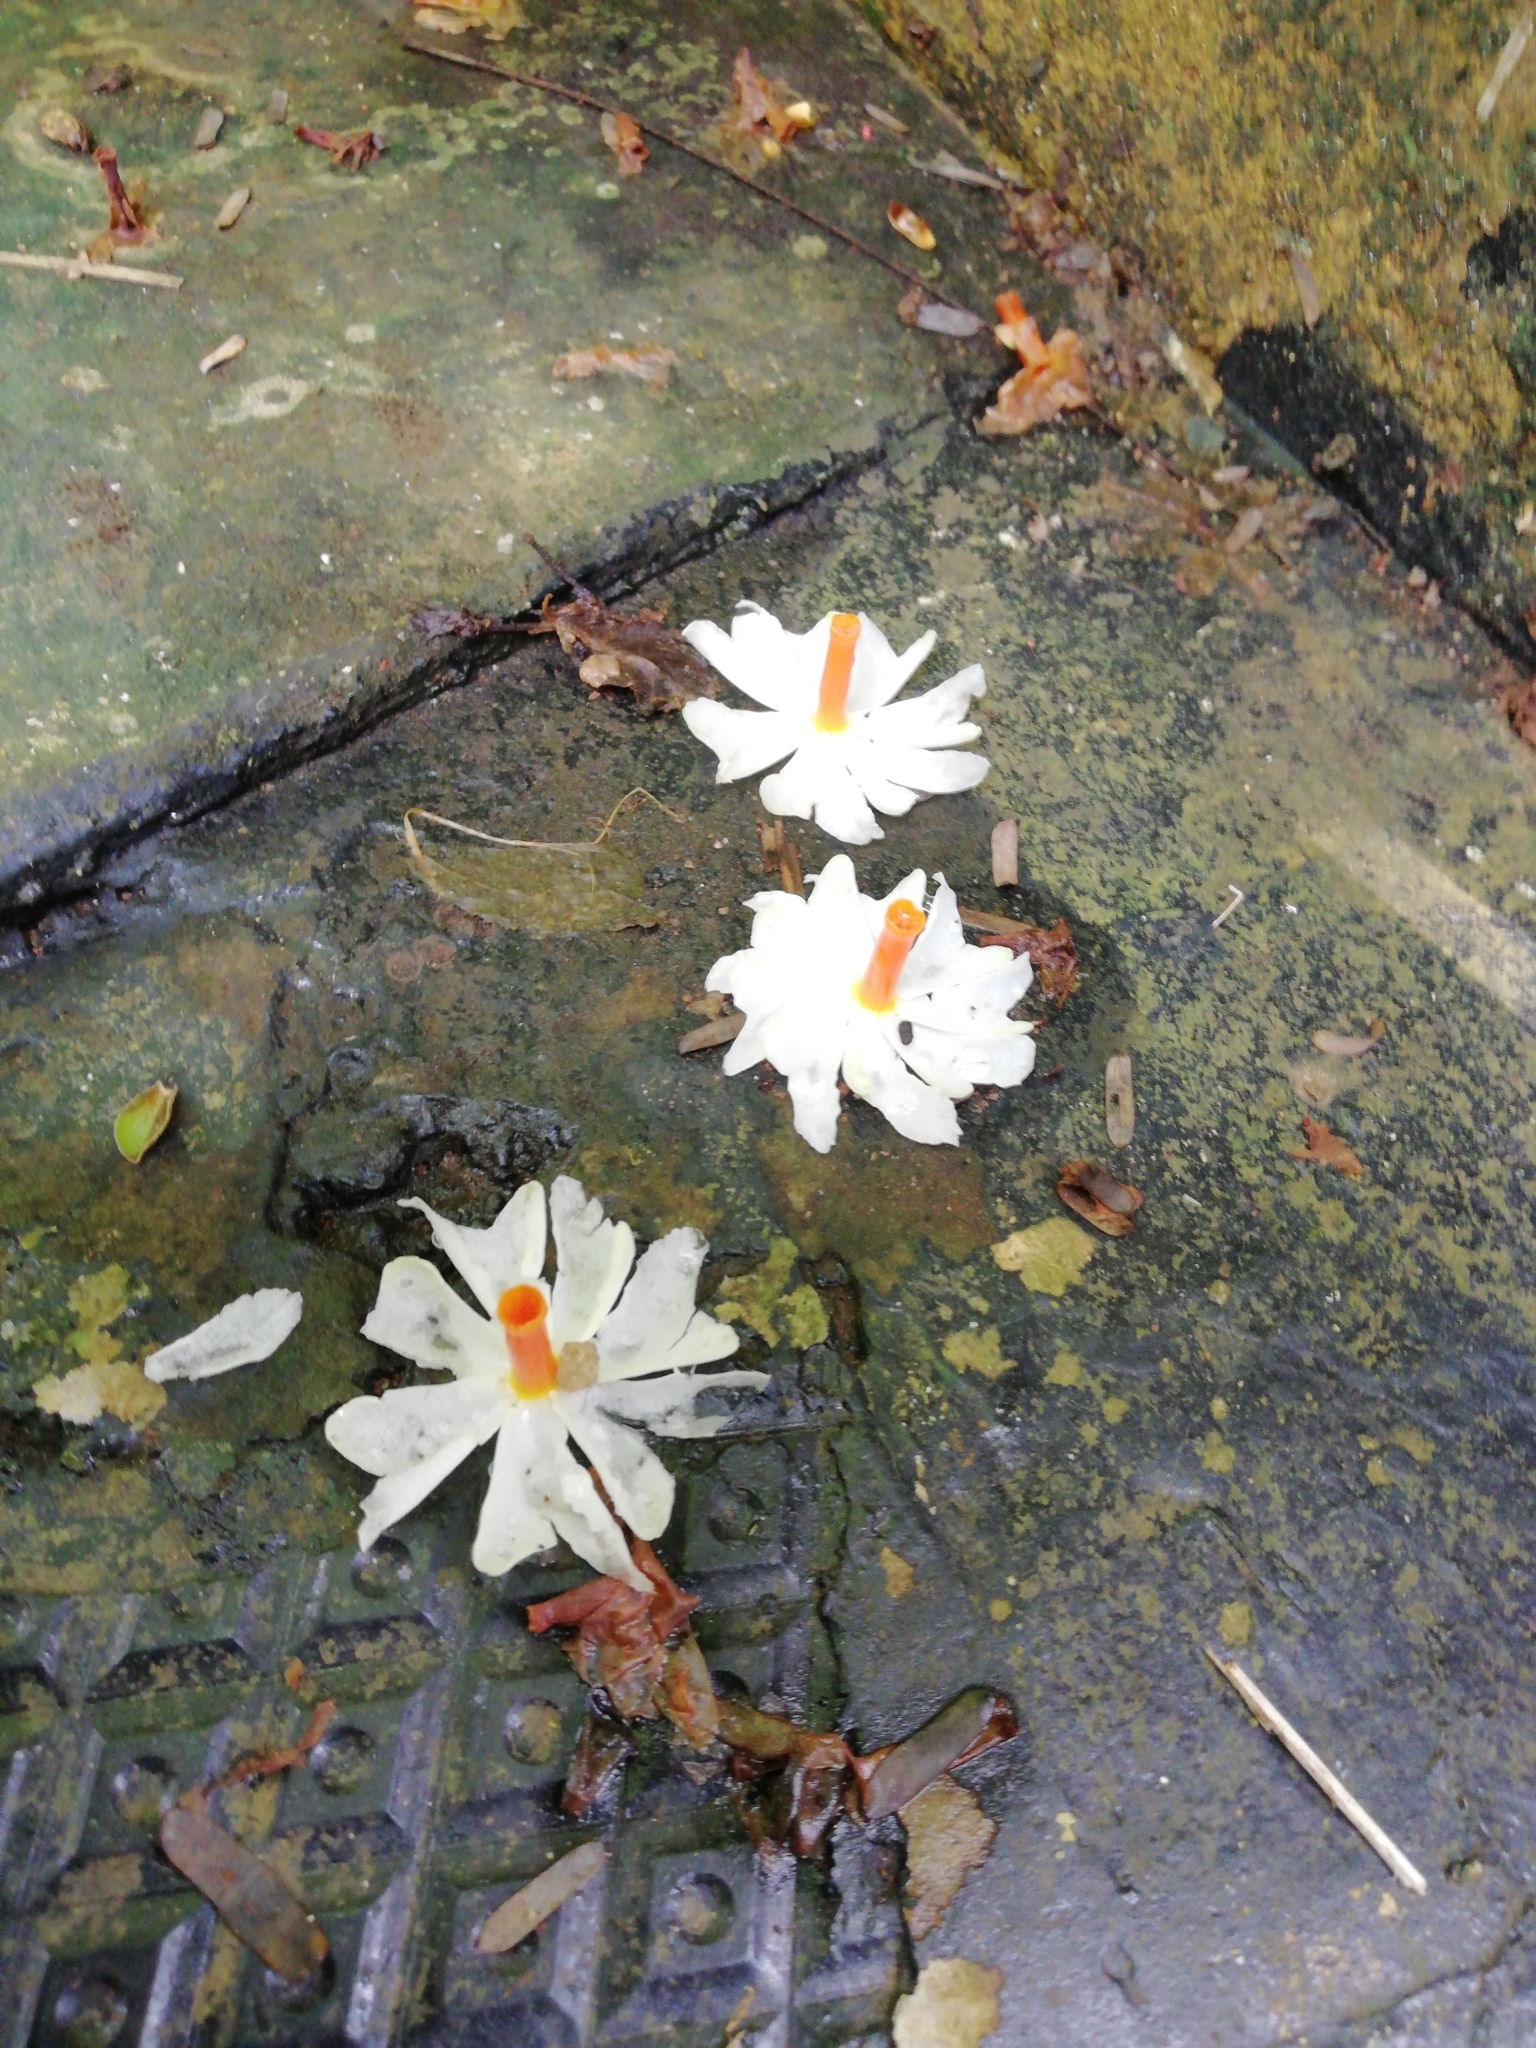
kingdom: Plantae
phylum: Tracheophyta
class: Magnoliopsida
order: Lamiales
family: Oleaceae
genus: Nyctanthes
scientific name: Nyctanthes arbor-tristis
